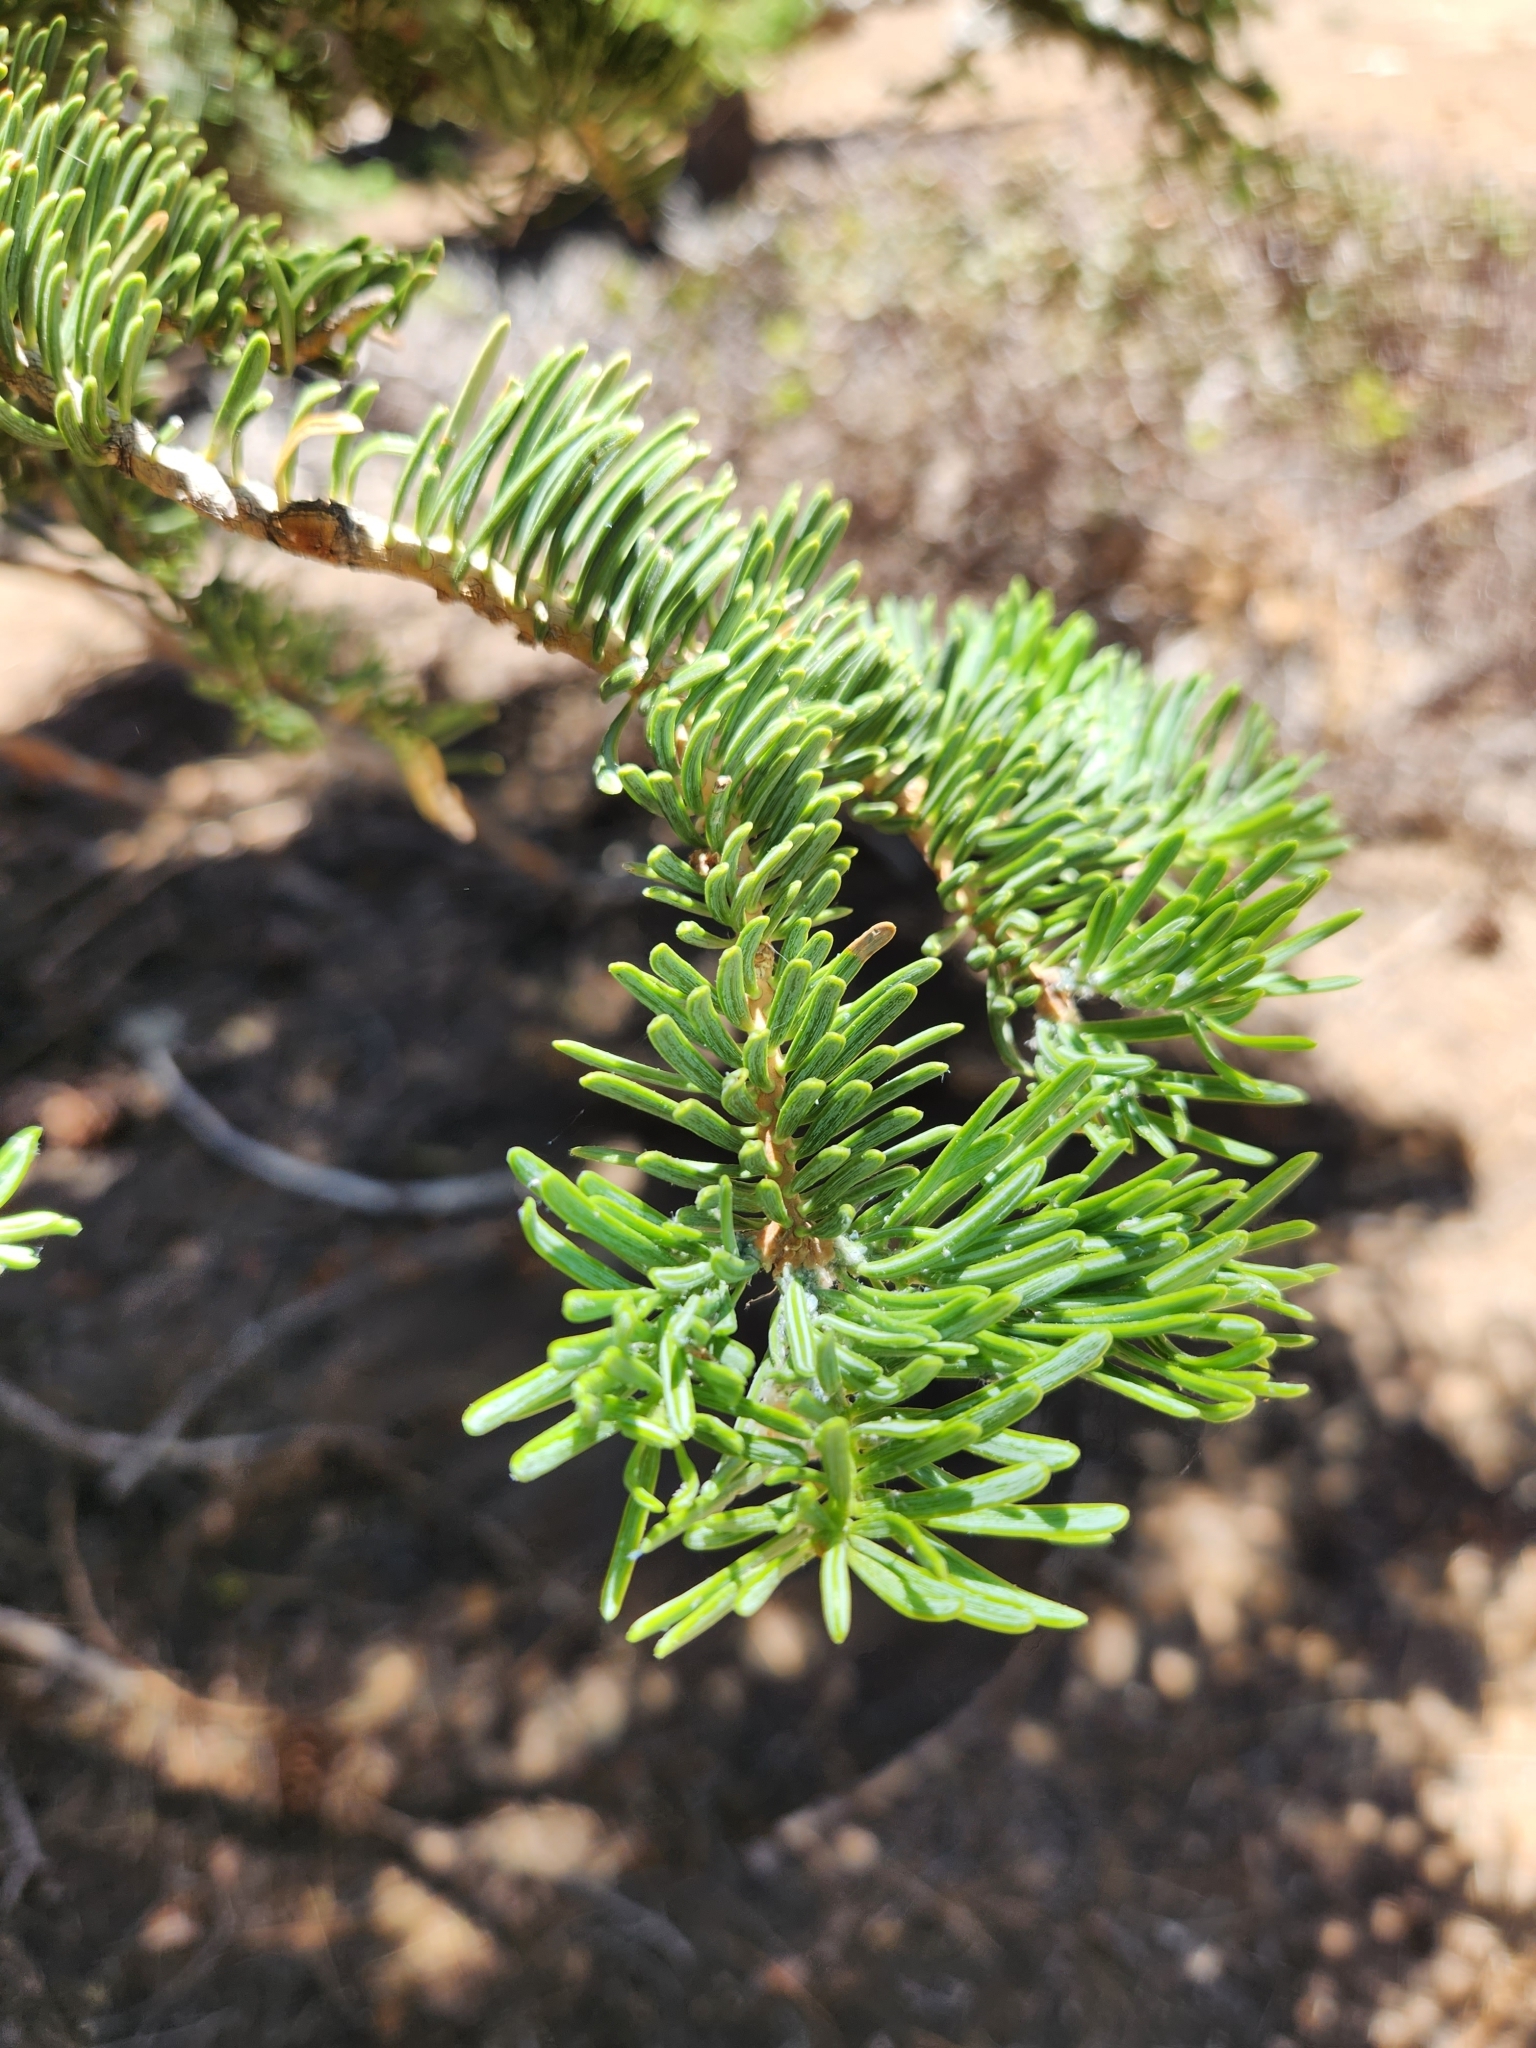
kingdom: Plantae
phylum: Tracheophyta
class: Pinopsida
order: Pinales
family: Pinaceae
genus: Abies
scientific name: Abies concolor
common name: Colorado fir
